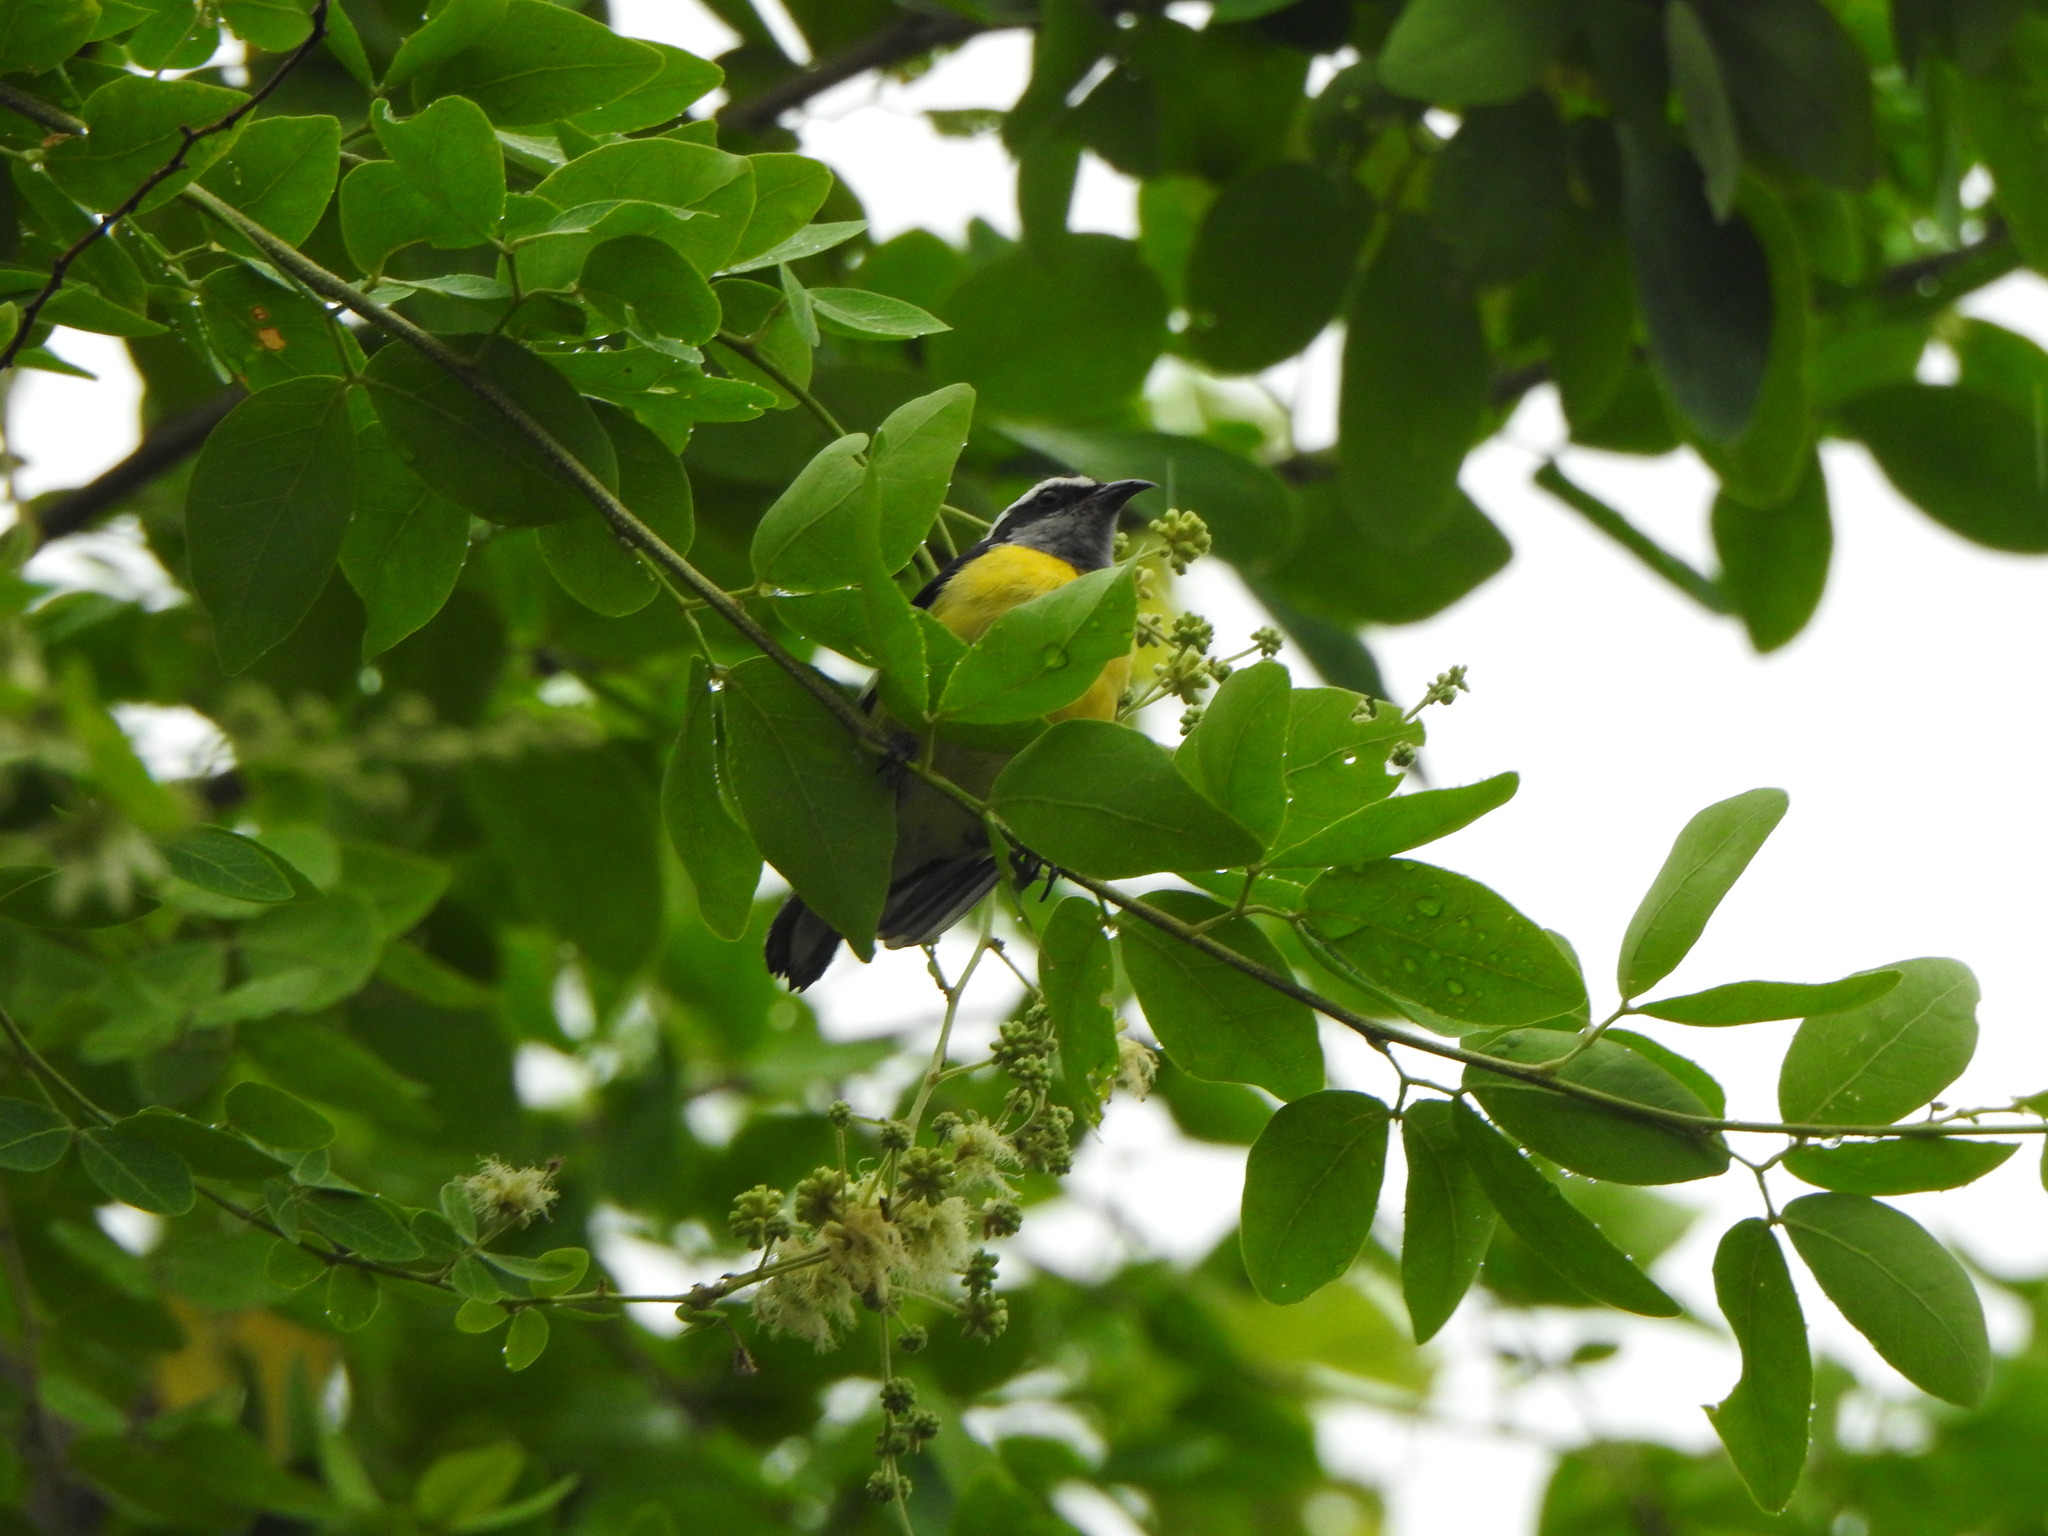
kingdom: Animalia
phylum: Chordata
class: Aves
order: Passeriformes
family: Thraupidae
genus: Coereba
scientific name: Coereba flaveola
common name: Bananaquit
